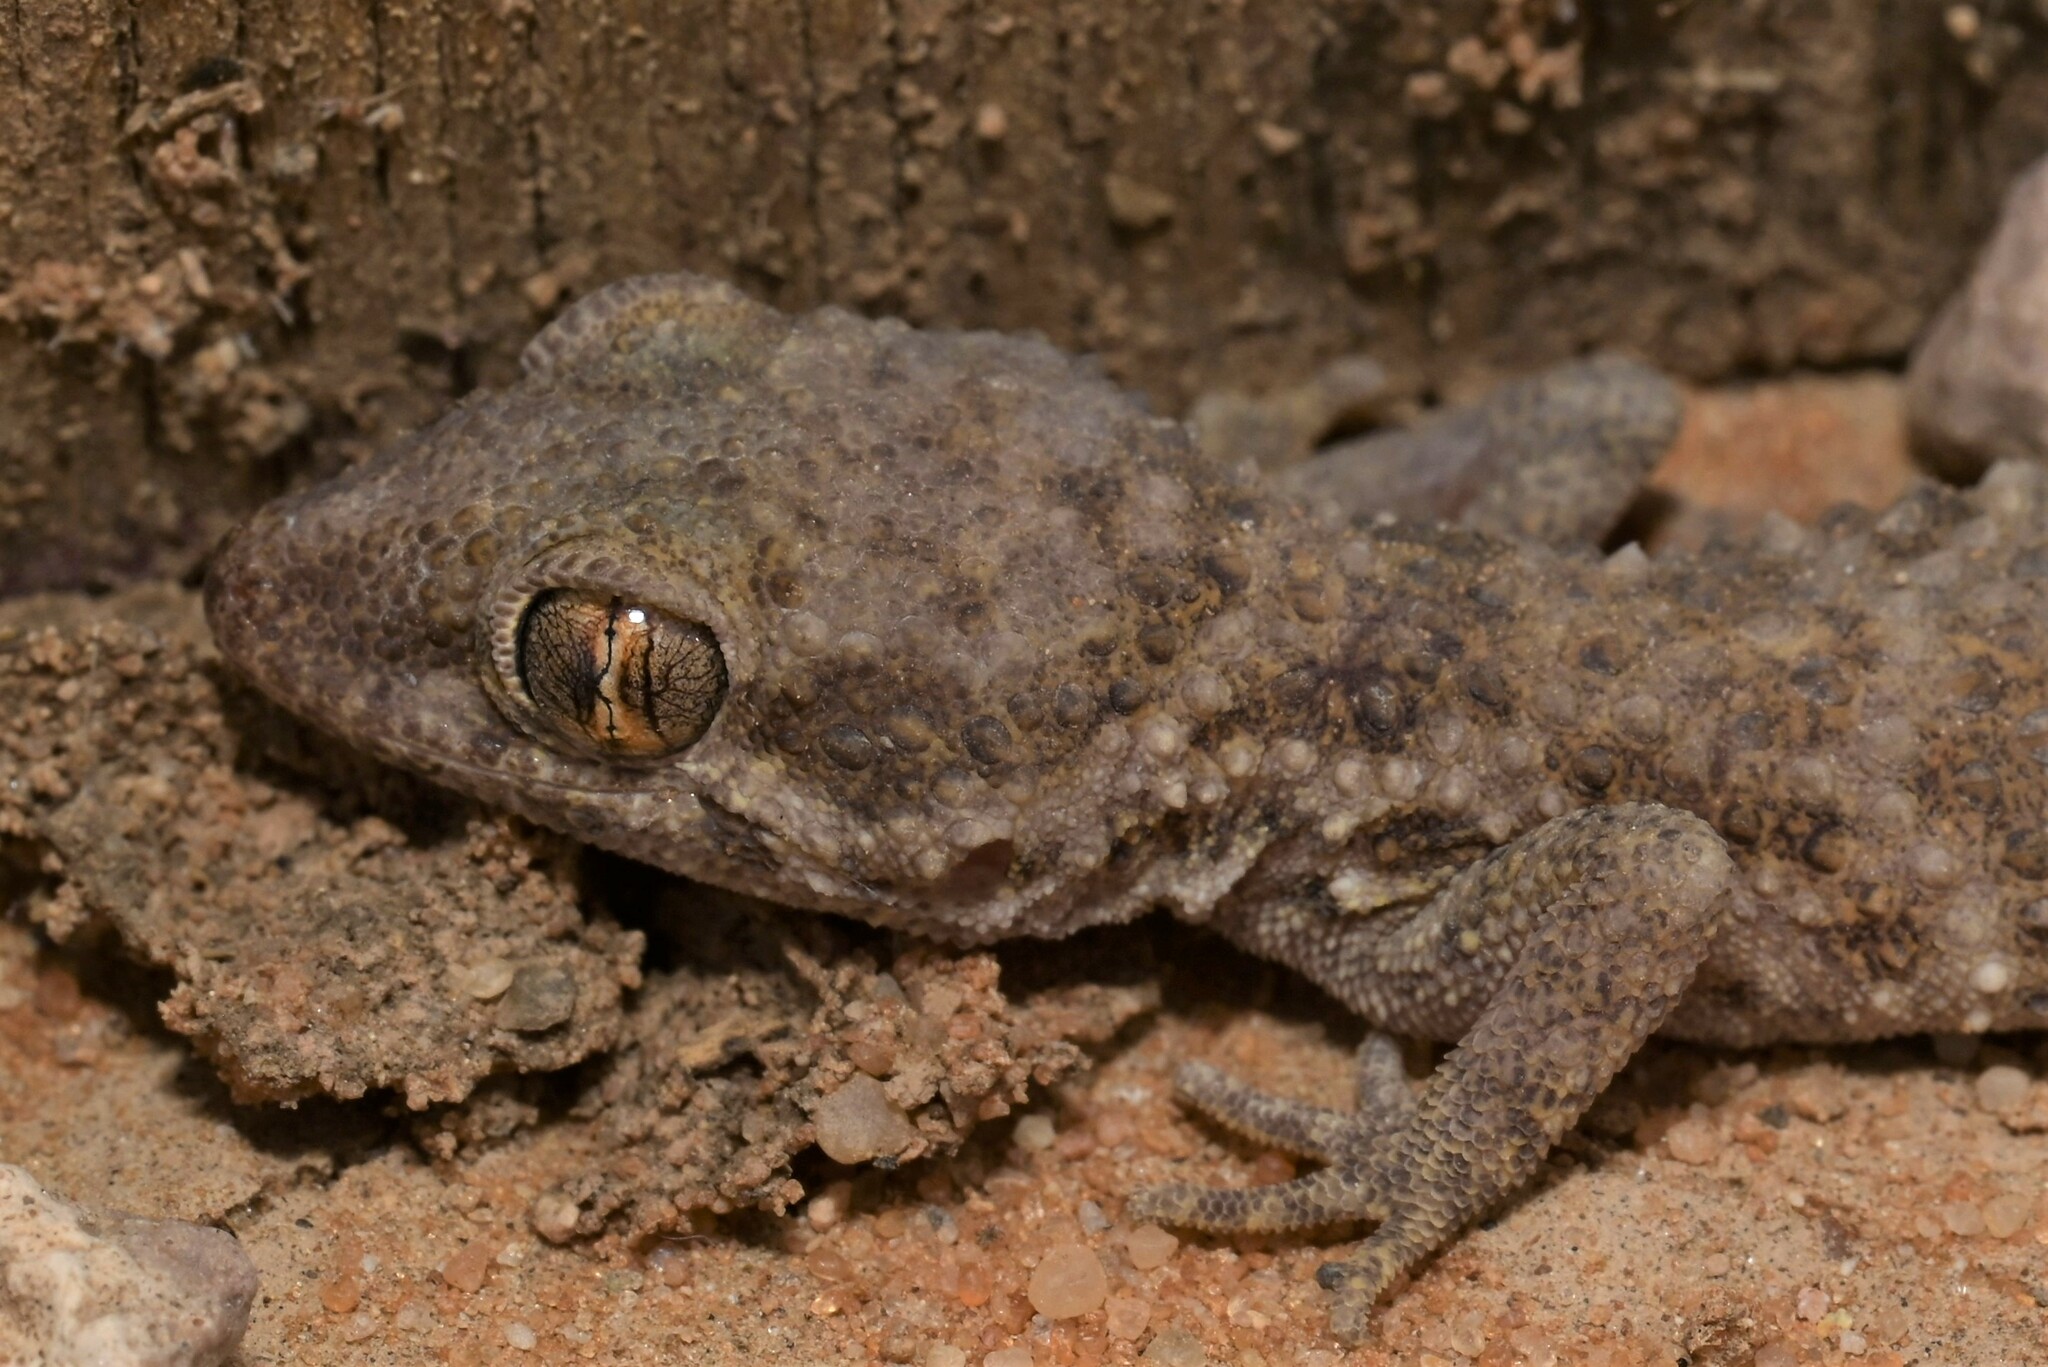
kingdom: Animalia
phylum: Chordata
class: Squamata
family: Gekkonidae
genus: Bunopus
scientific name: Bunopus tuberculatus
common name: Southern tuberculated gecko
